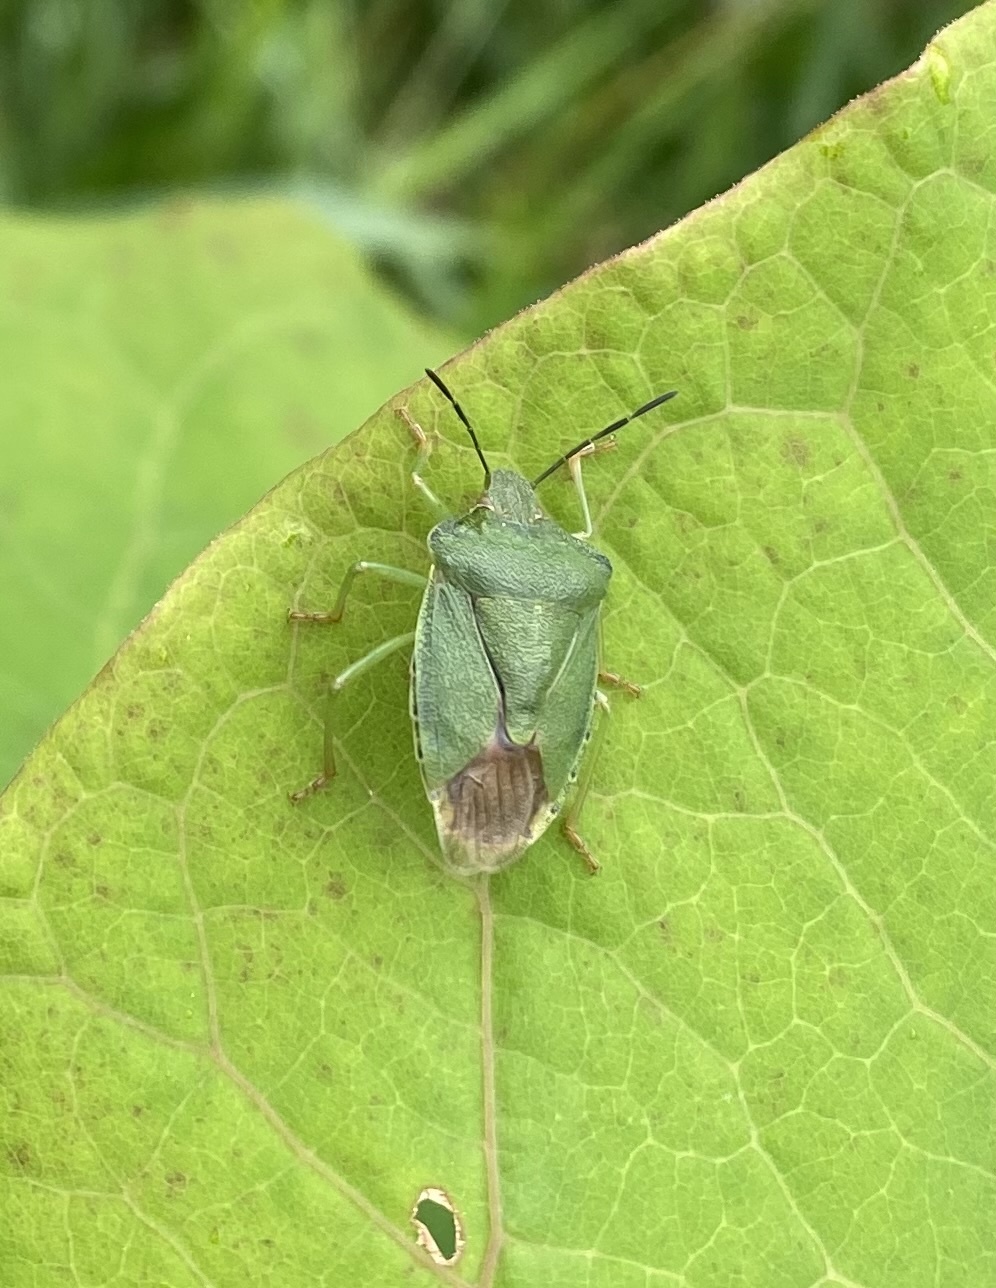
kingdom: Animalia
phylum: Arthropoda
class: Insecta
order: Hemiptera
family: Pentatomidae
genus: Palomena
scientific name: Palomena
